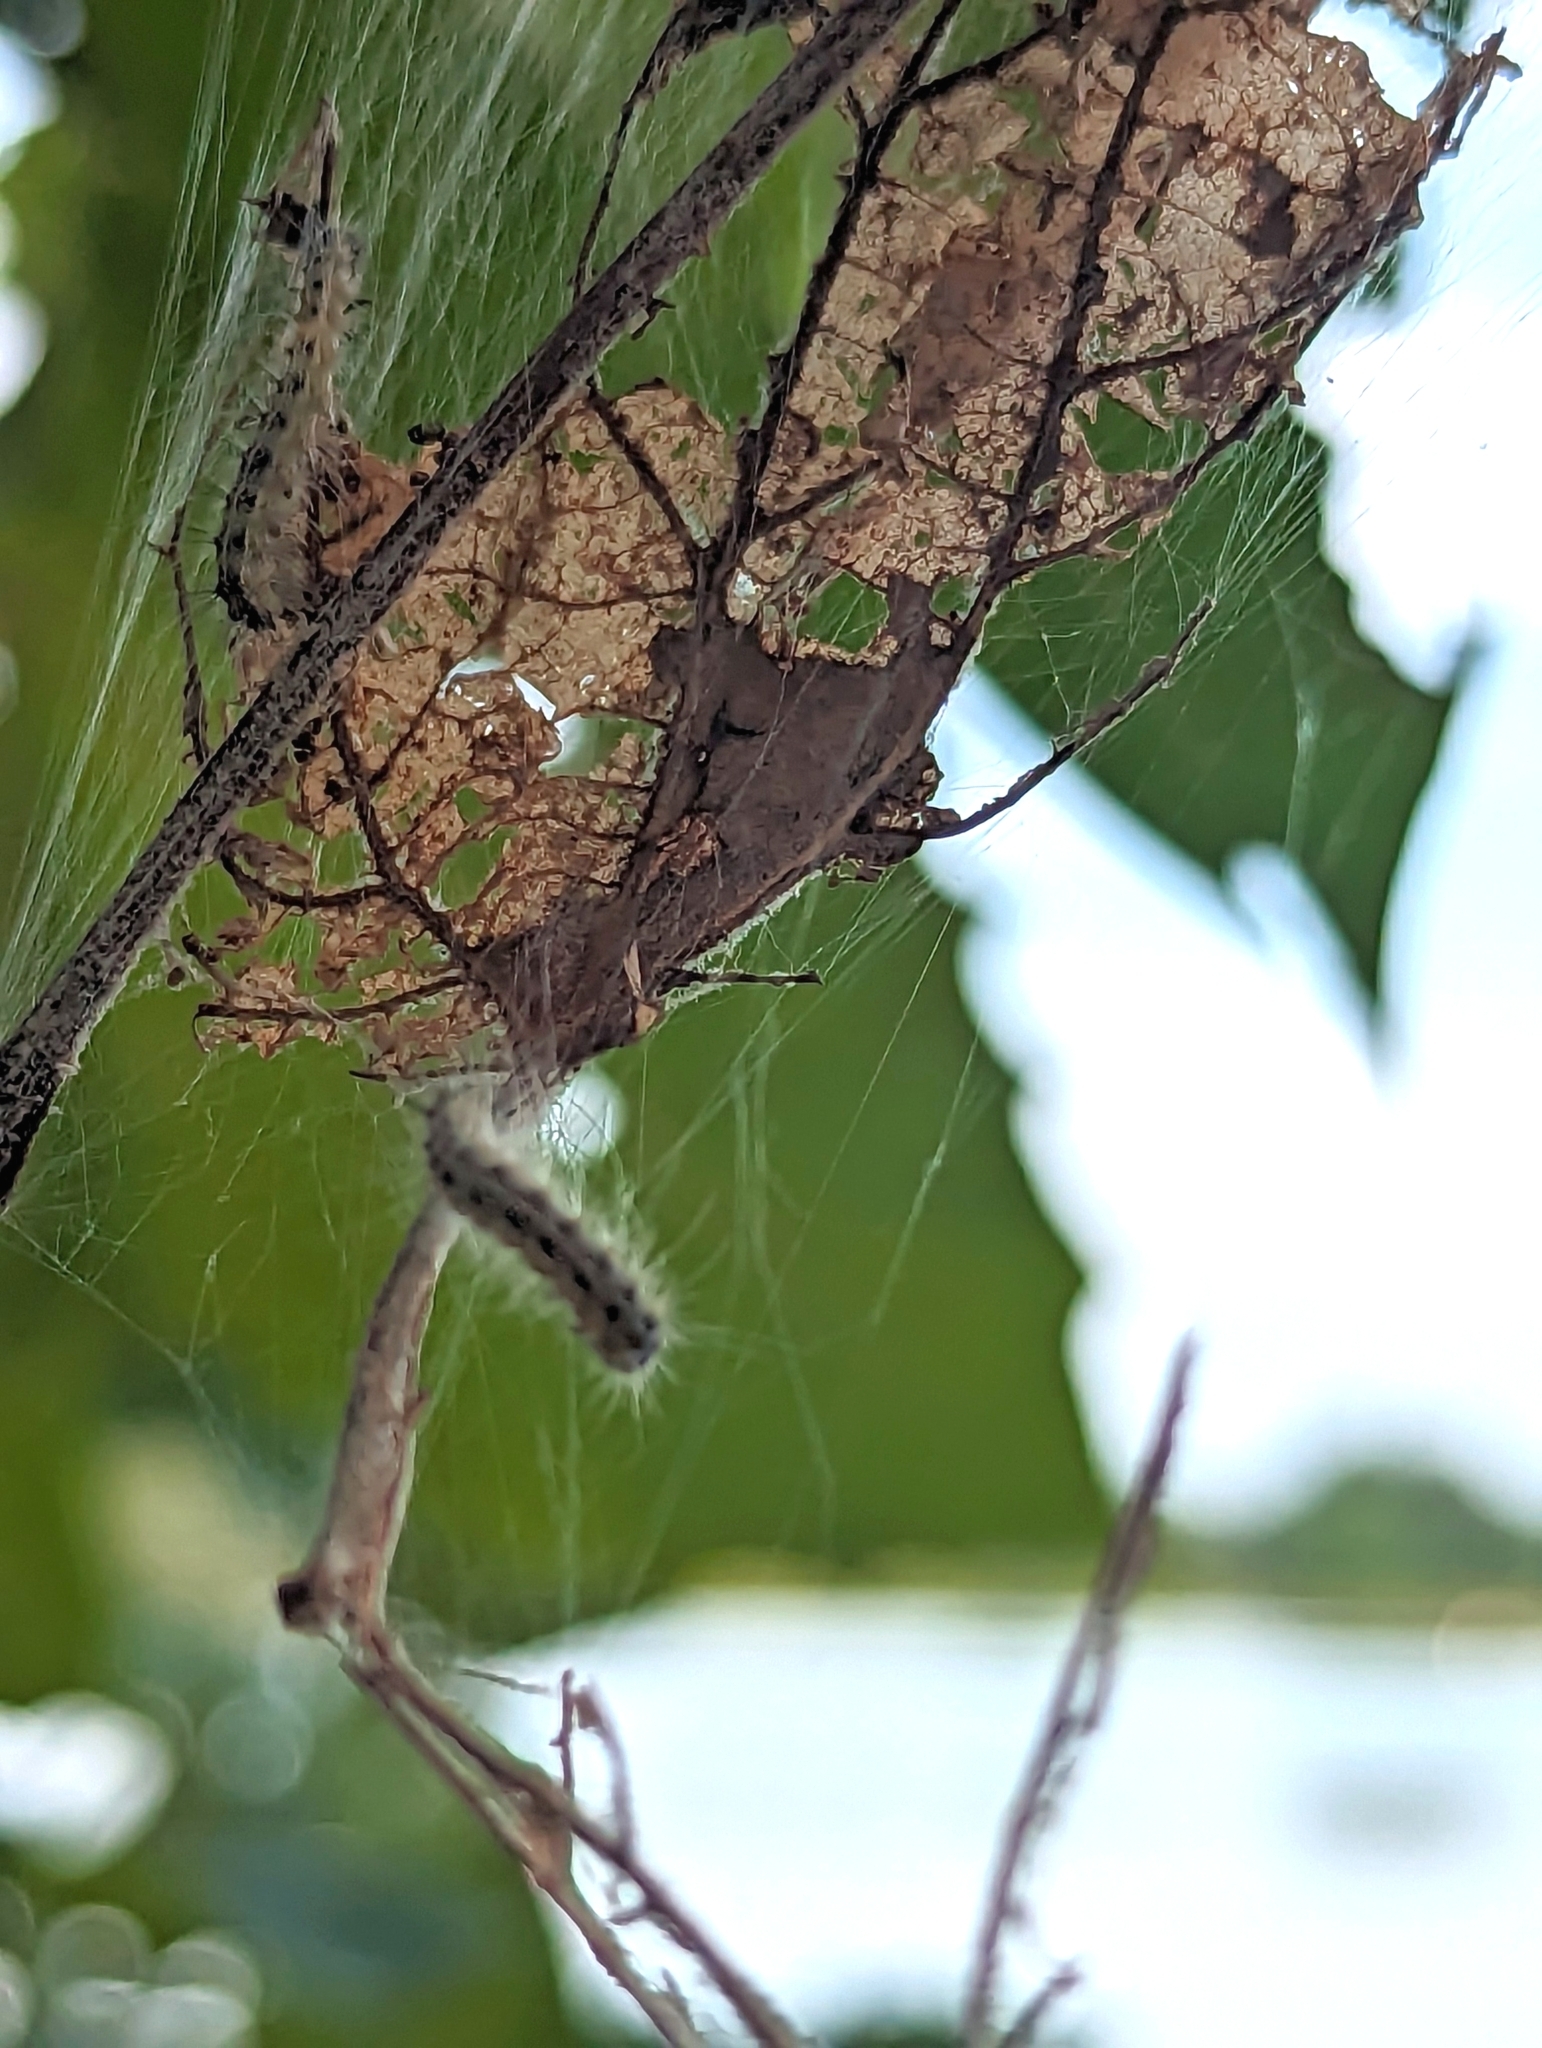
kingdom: Animalia
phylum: Arthropoda
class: Insecta
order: Lepidoptera
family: Erebidae
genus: Hyphantria
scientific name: Hyphantria cunea
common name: American white moth
